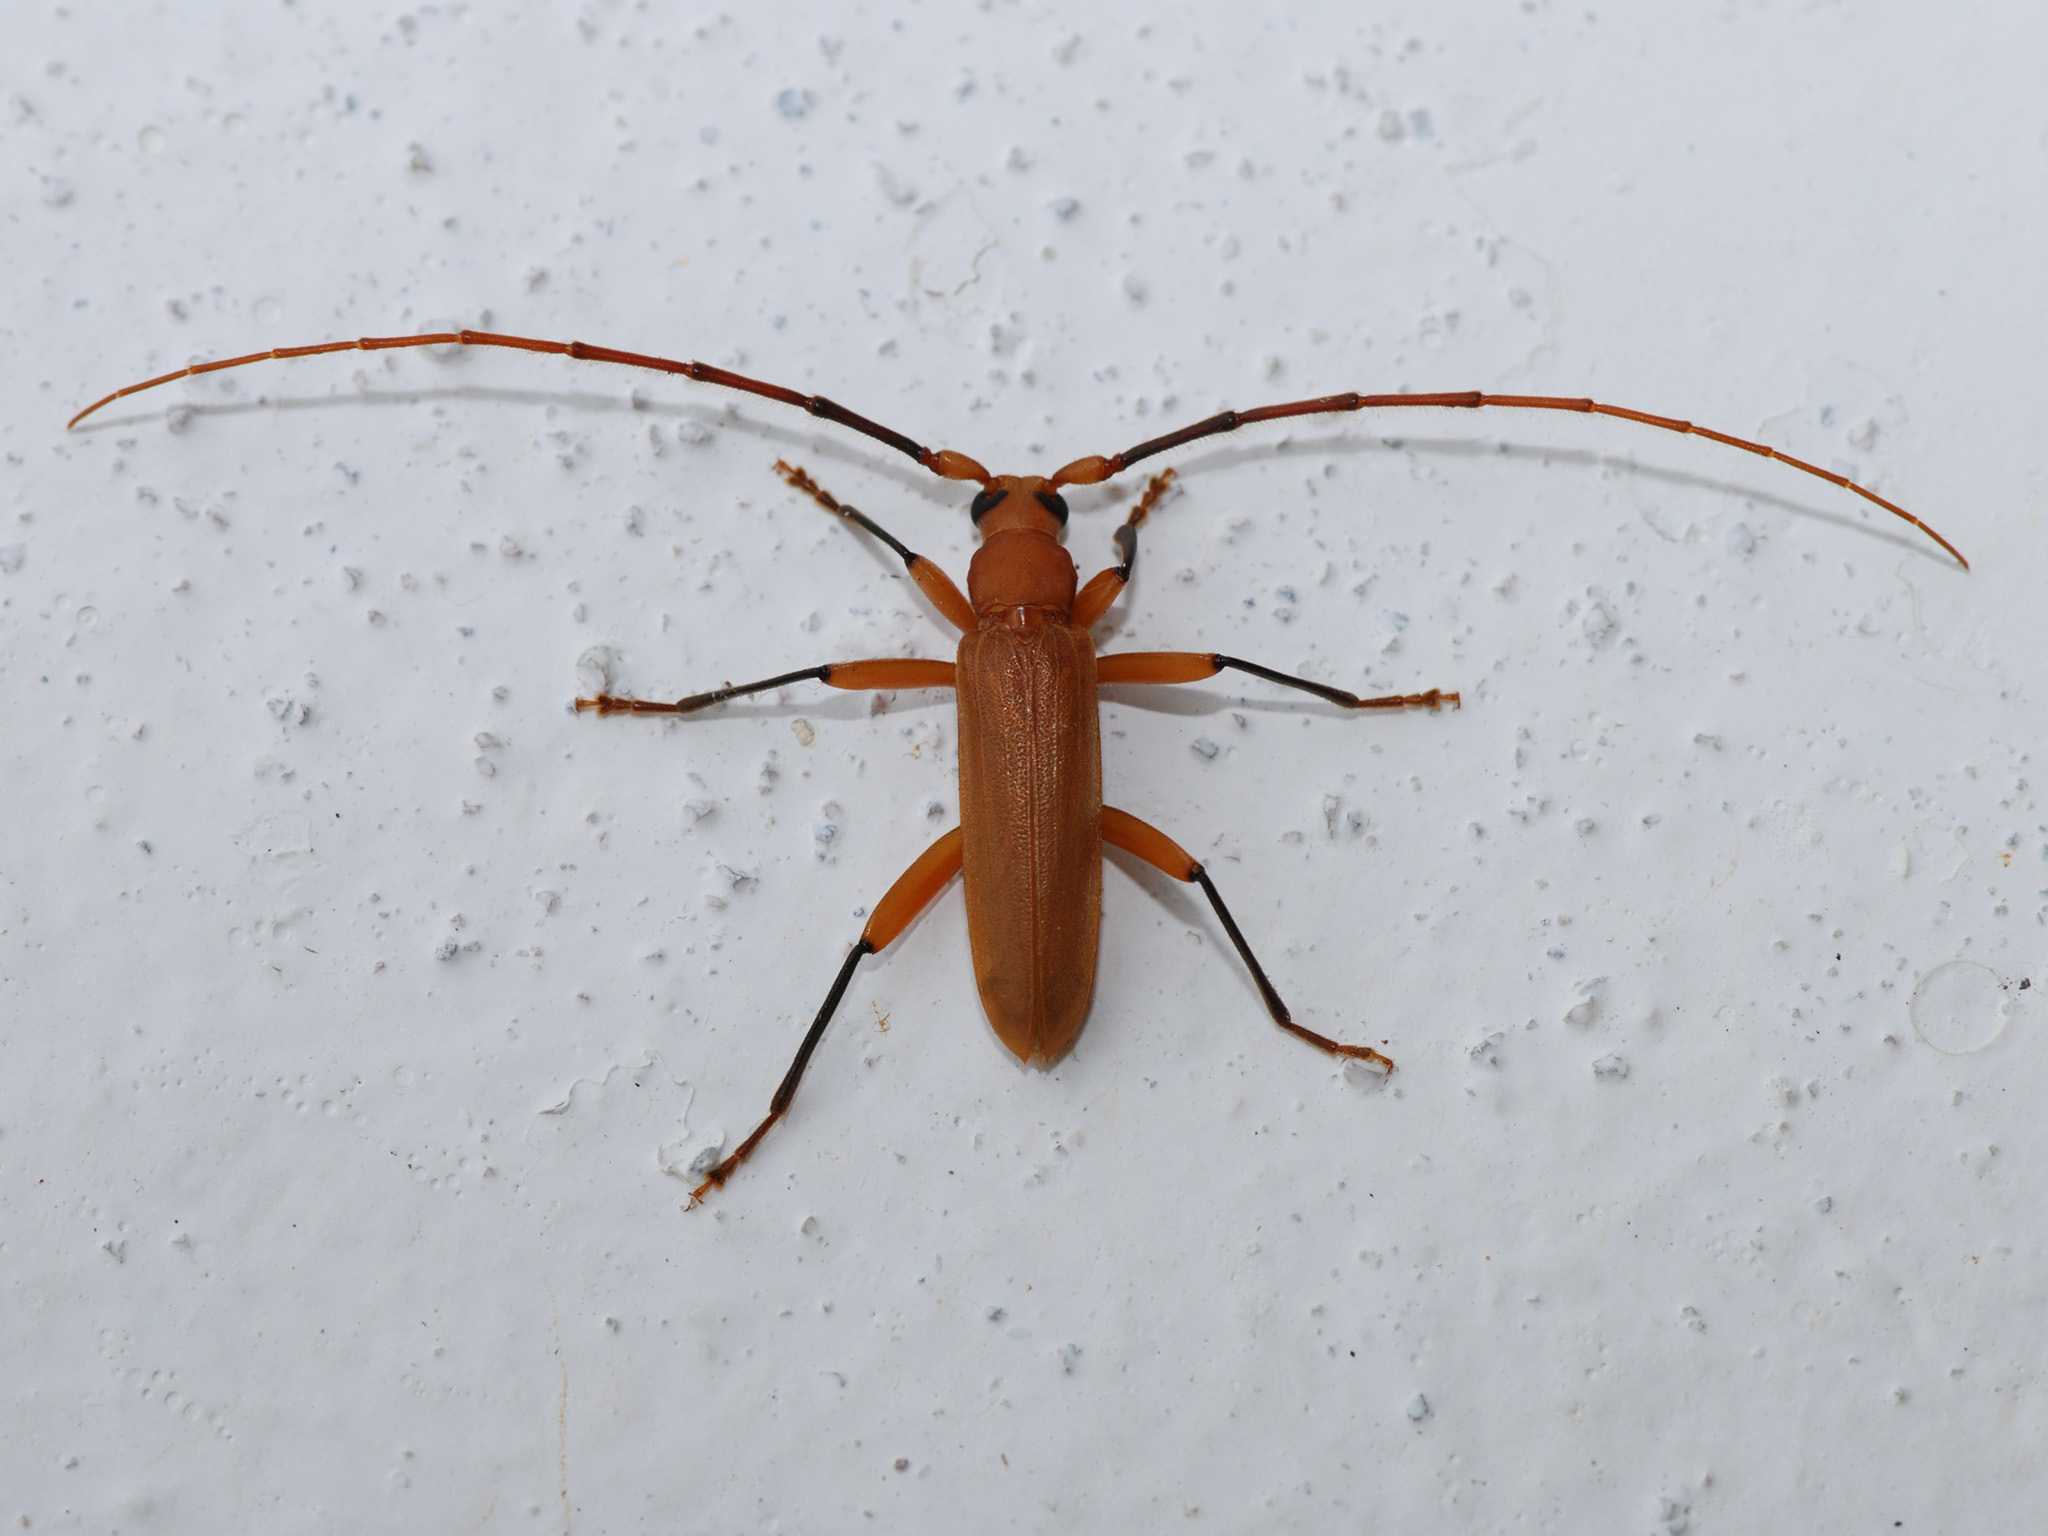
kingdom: Animalia
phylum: Arthropoda
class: Insecta
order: Coleoptera
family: Cerambycidae
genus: Noserius
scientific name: Noserius tibialis
